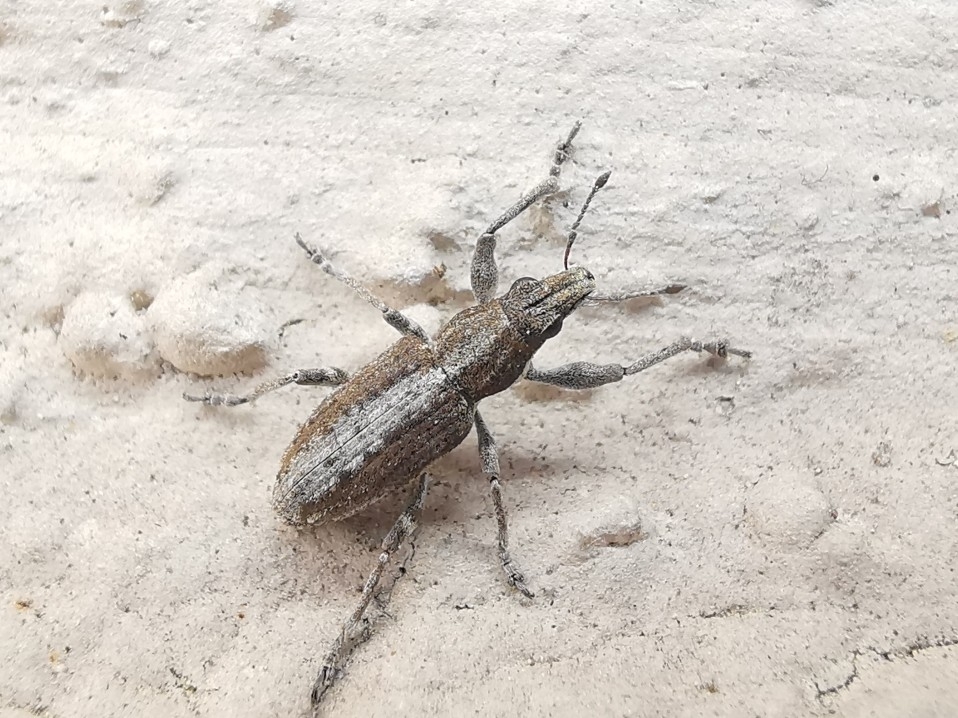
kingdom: Animalia
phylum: Arthropoda
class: Insecta
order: Coleoptera
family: Curculionidae
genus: Charagmus
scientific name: Charagmus griseus
